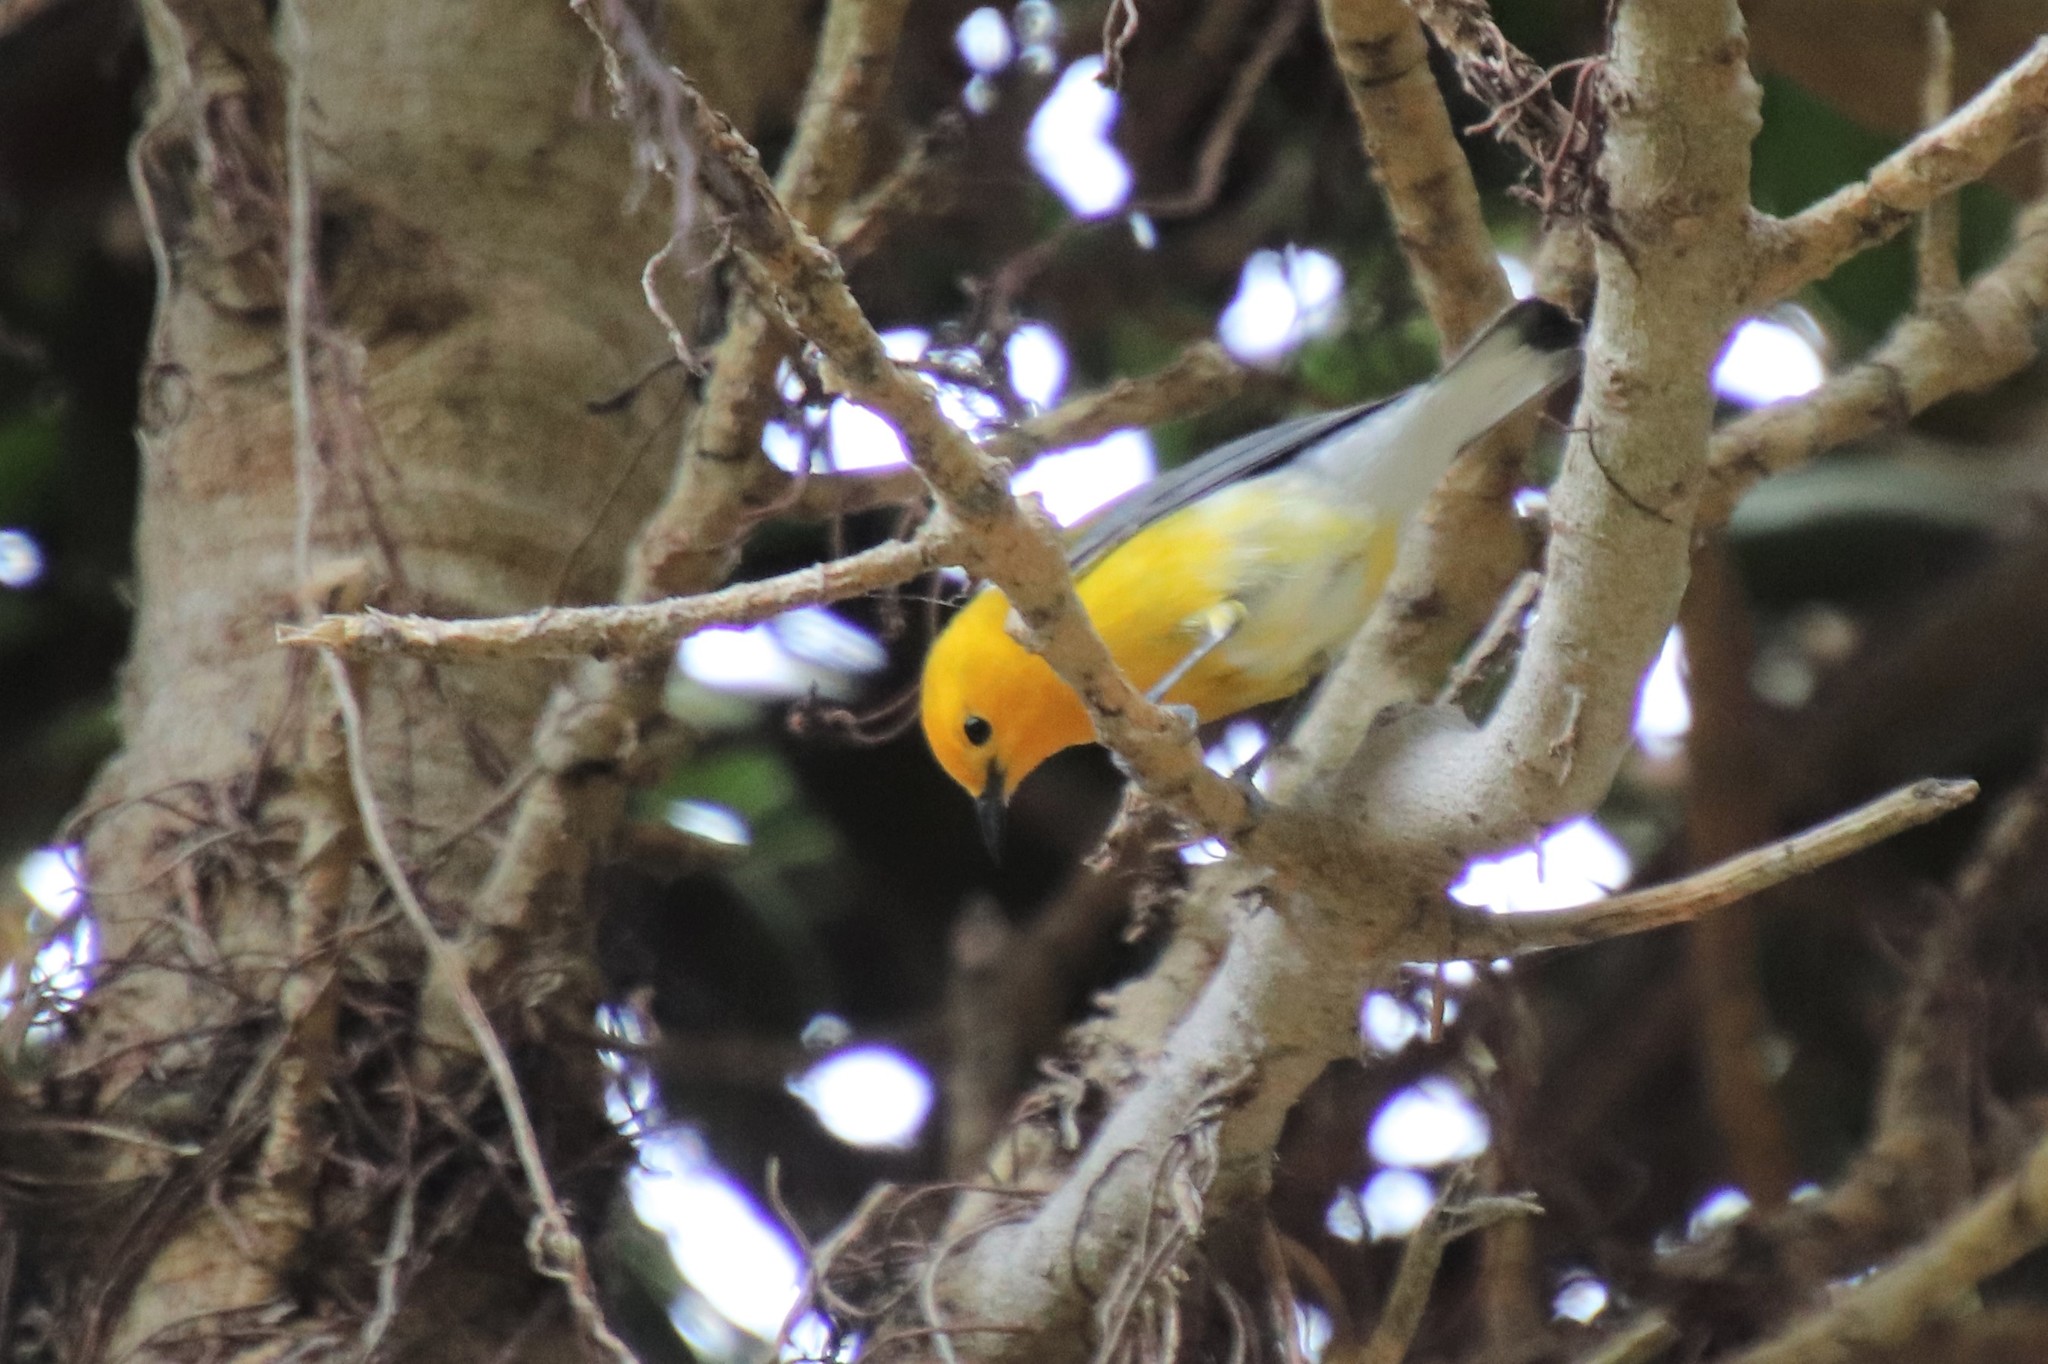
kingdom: Animalia
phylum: Chordata
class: Aves
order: Passeriformes
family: Parulidae
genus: Protonotaria
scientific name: Protonotaria citrea
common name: Prothonotary warbler
